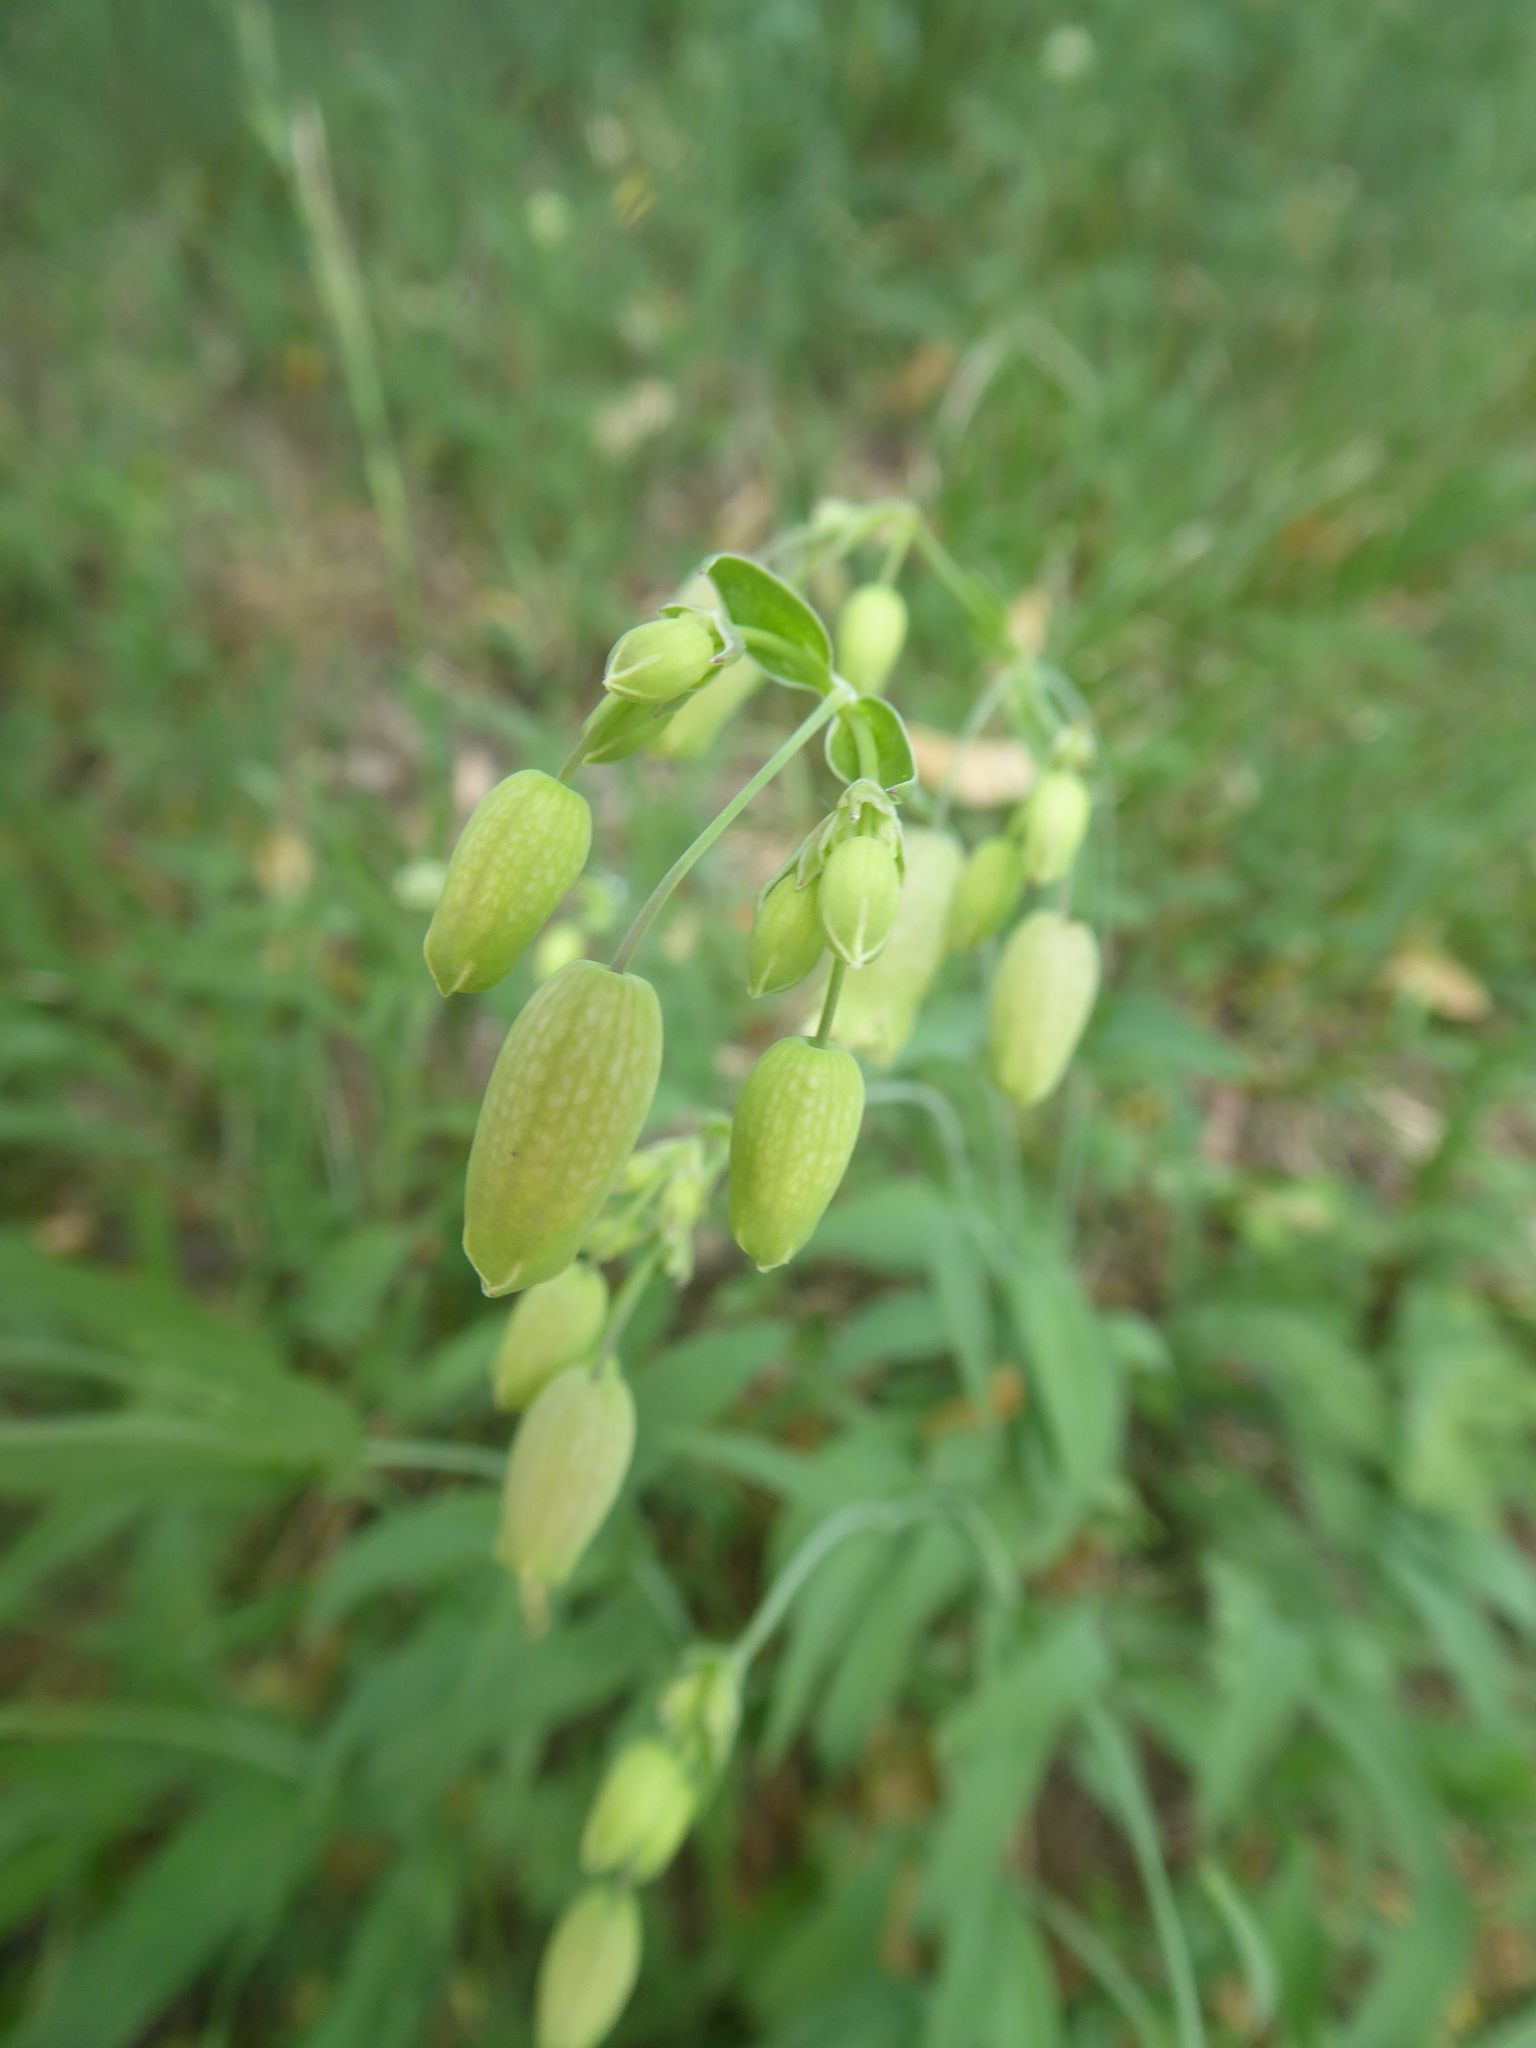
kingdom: Plantae
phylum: Tracheophyta
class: Magnoliopsida
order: Caryophyllales
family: Caryophyllaceae
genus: Silene
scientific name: Silene vulgaris
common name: Bladder campion
